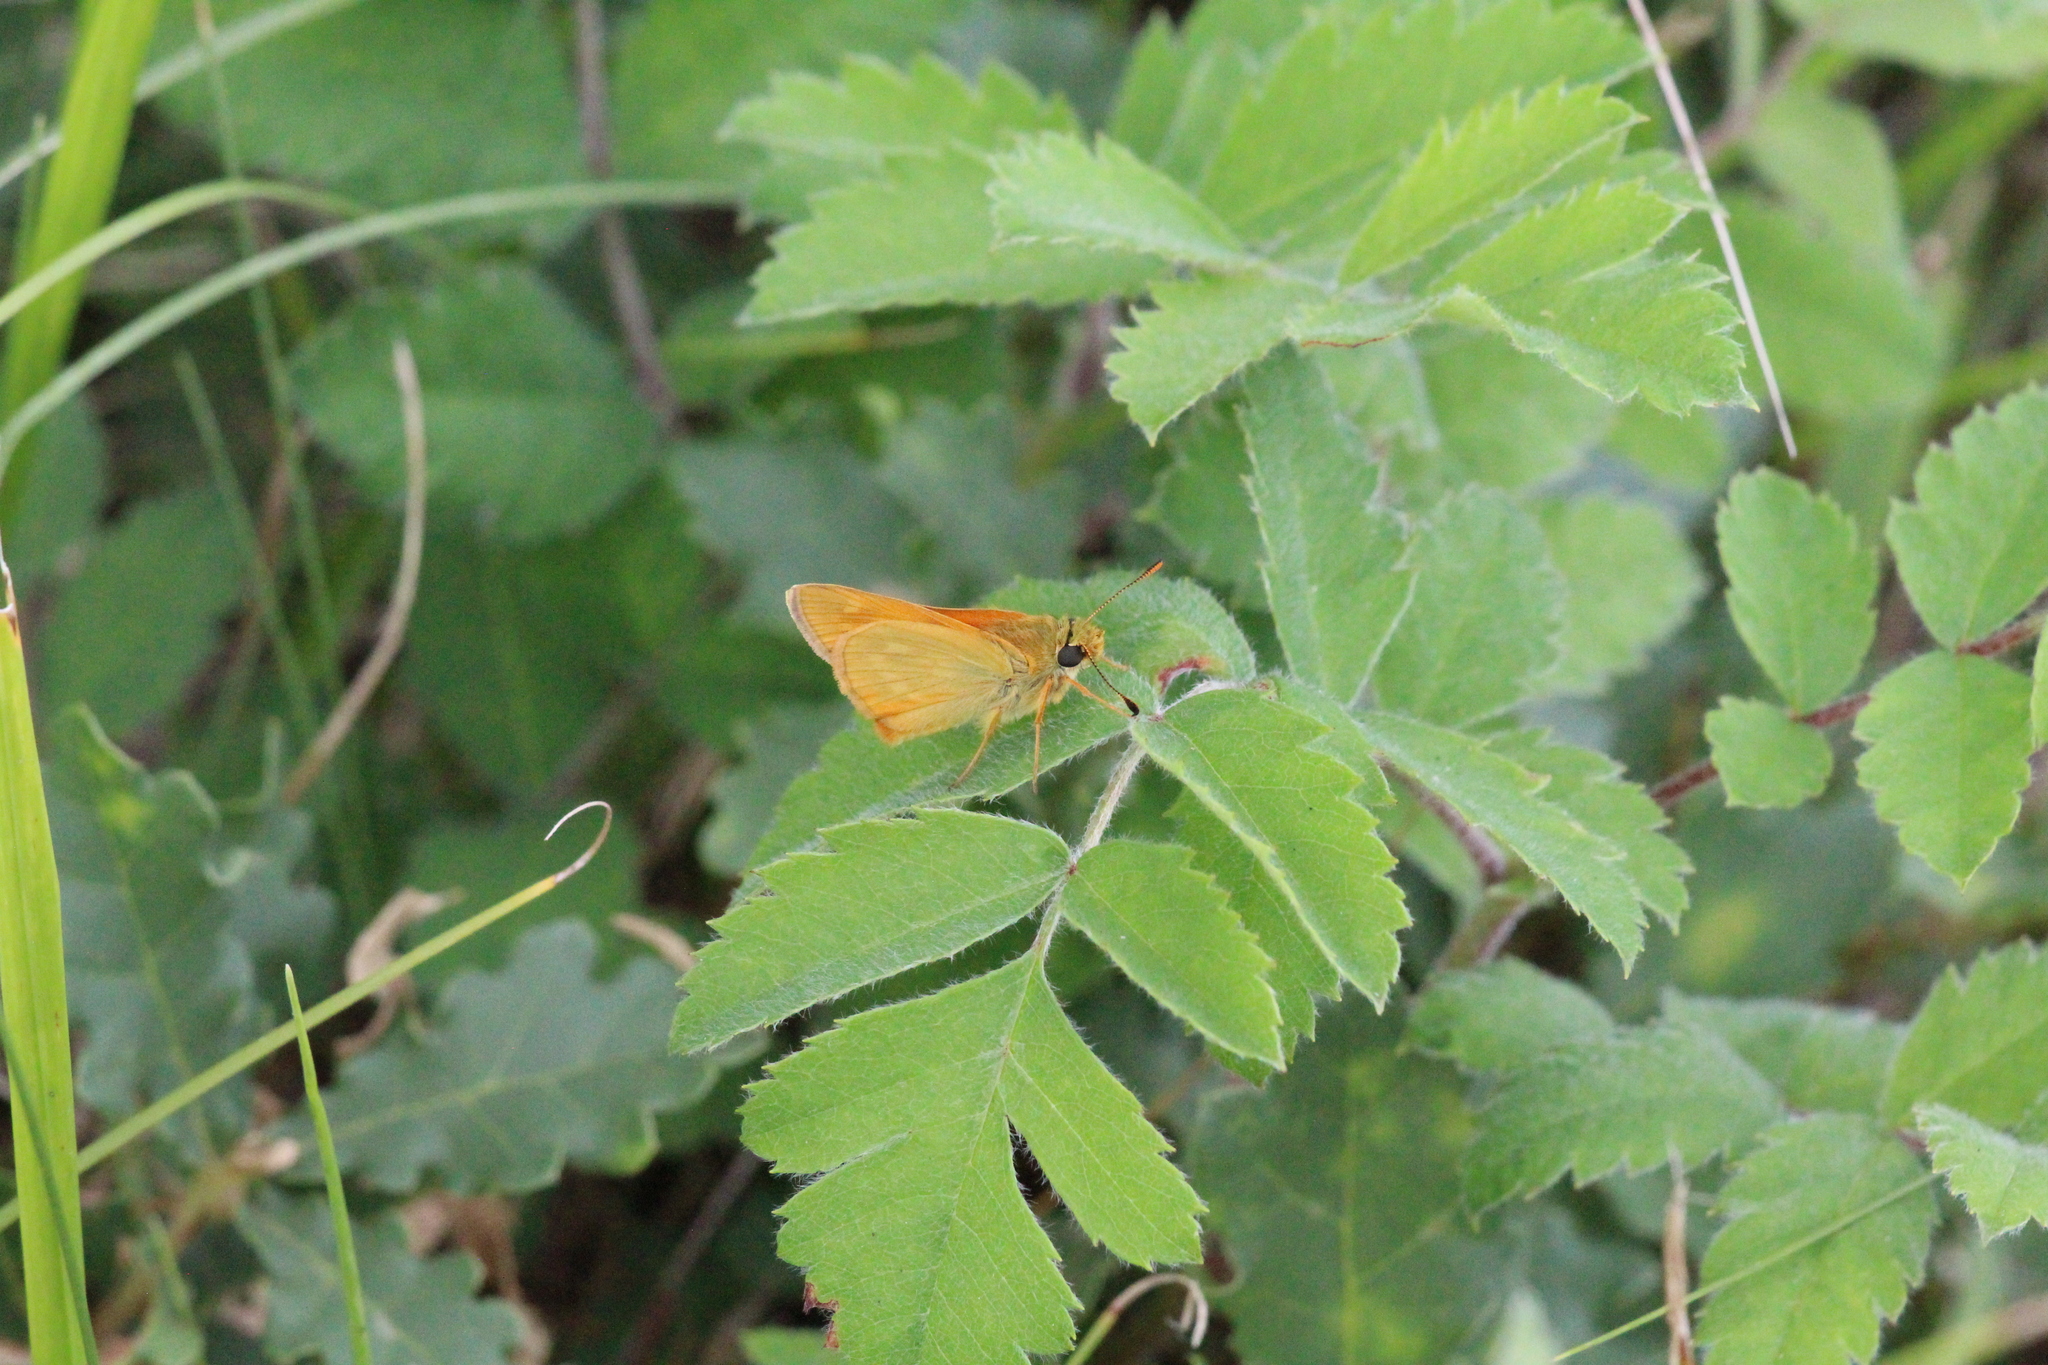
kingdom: Animalia
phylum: Arthropoda
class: Insecta
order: Lepidoptera
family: Hesperiidae
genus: Ochlodes
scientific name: Ochlodes venata
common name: Large skipper
